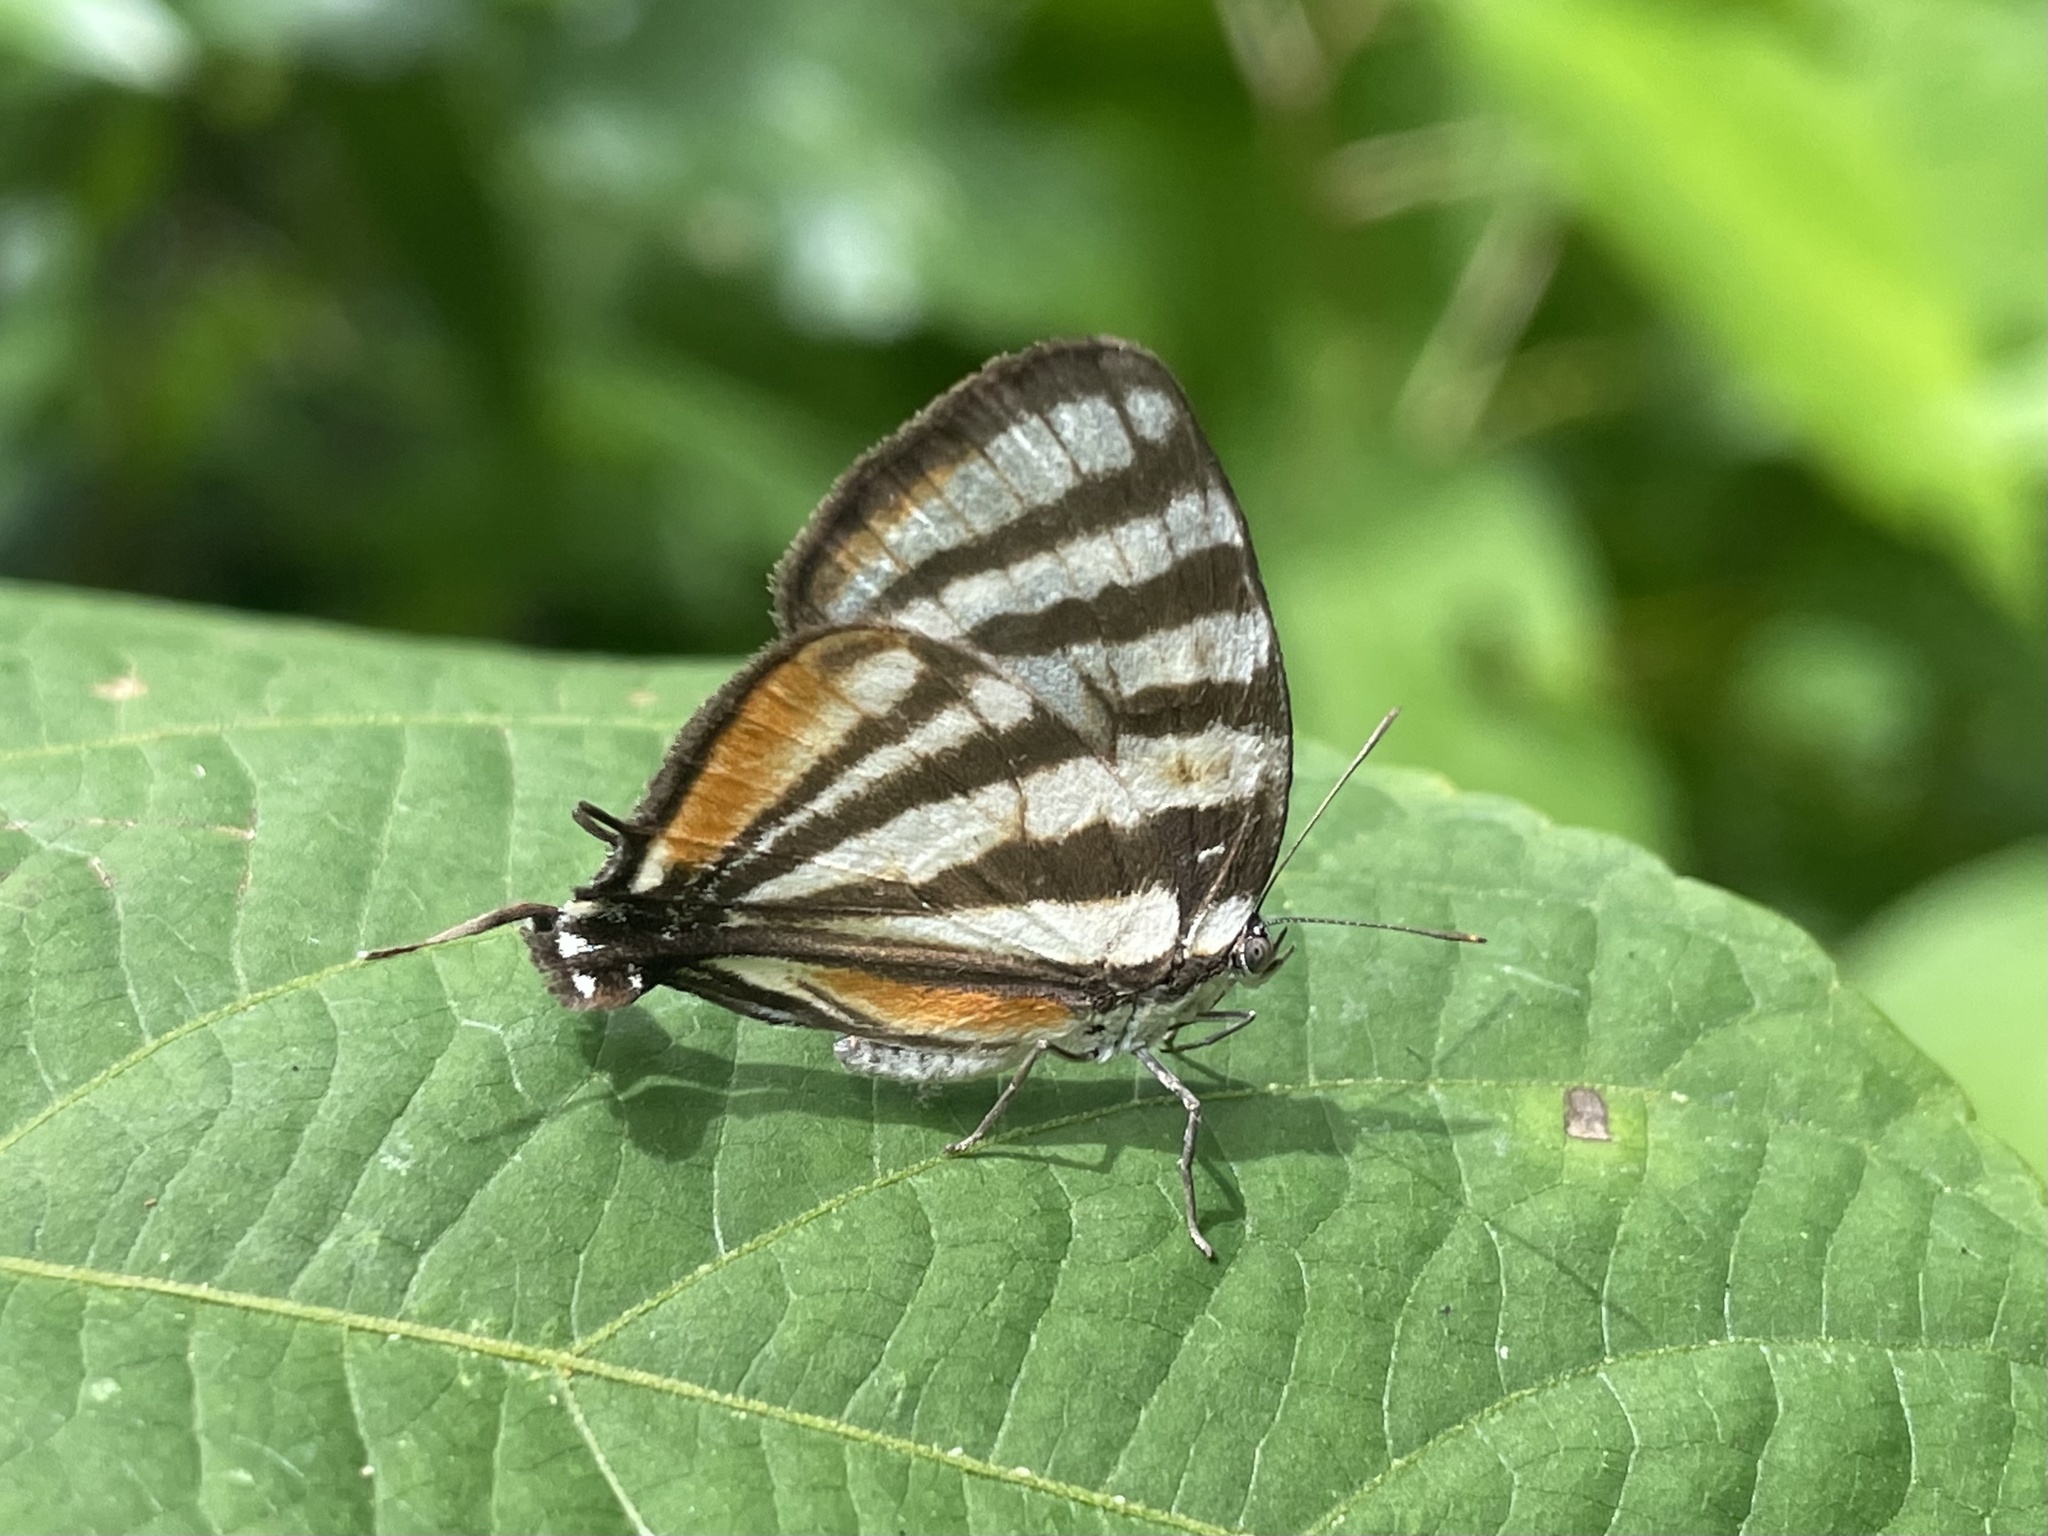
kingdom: Animalia
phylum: Arthropoda
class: Insecta
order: Lepidoptera
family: Lycaenidae
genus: Arawacus
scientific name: Arawacus lincoides
